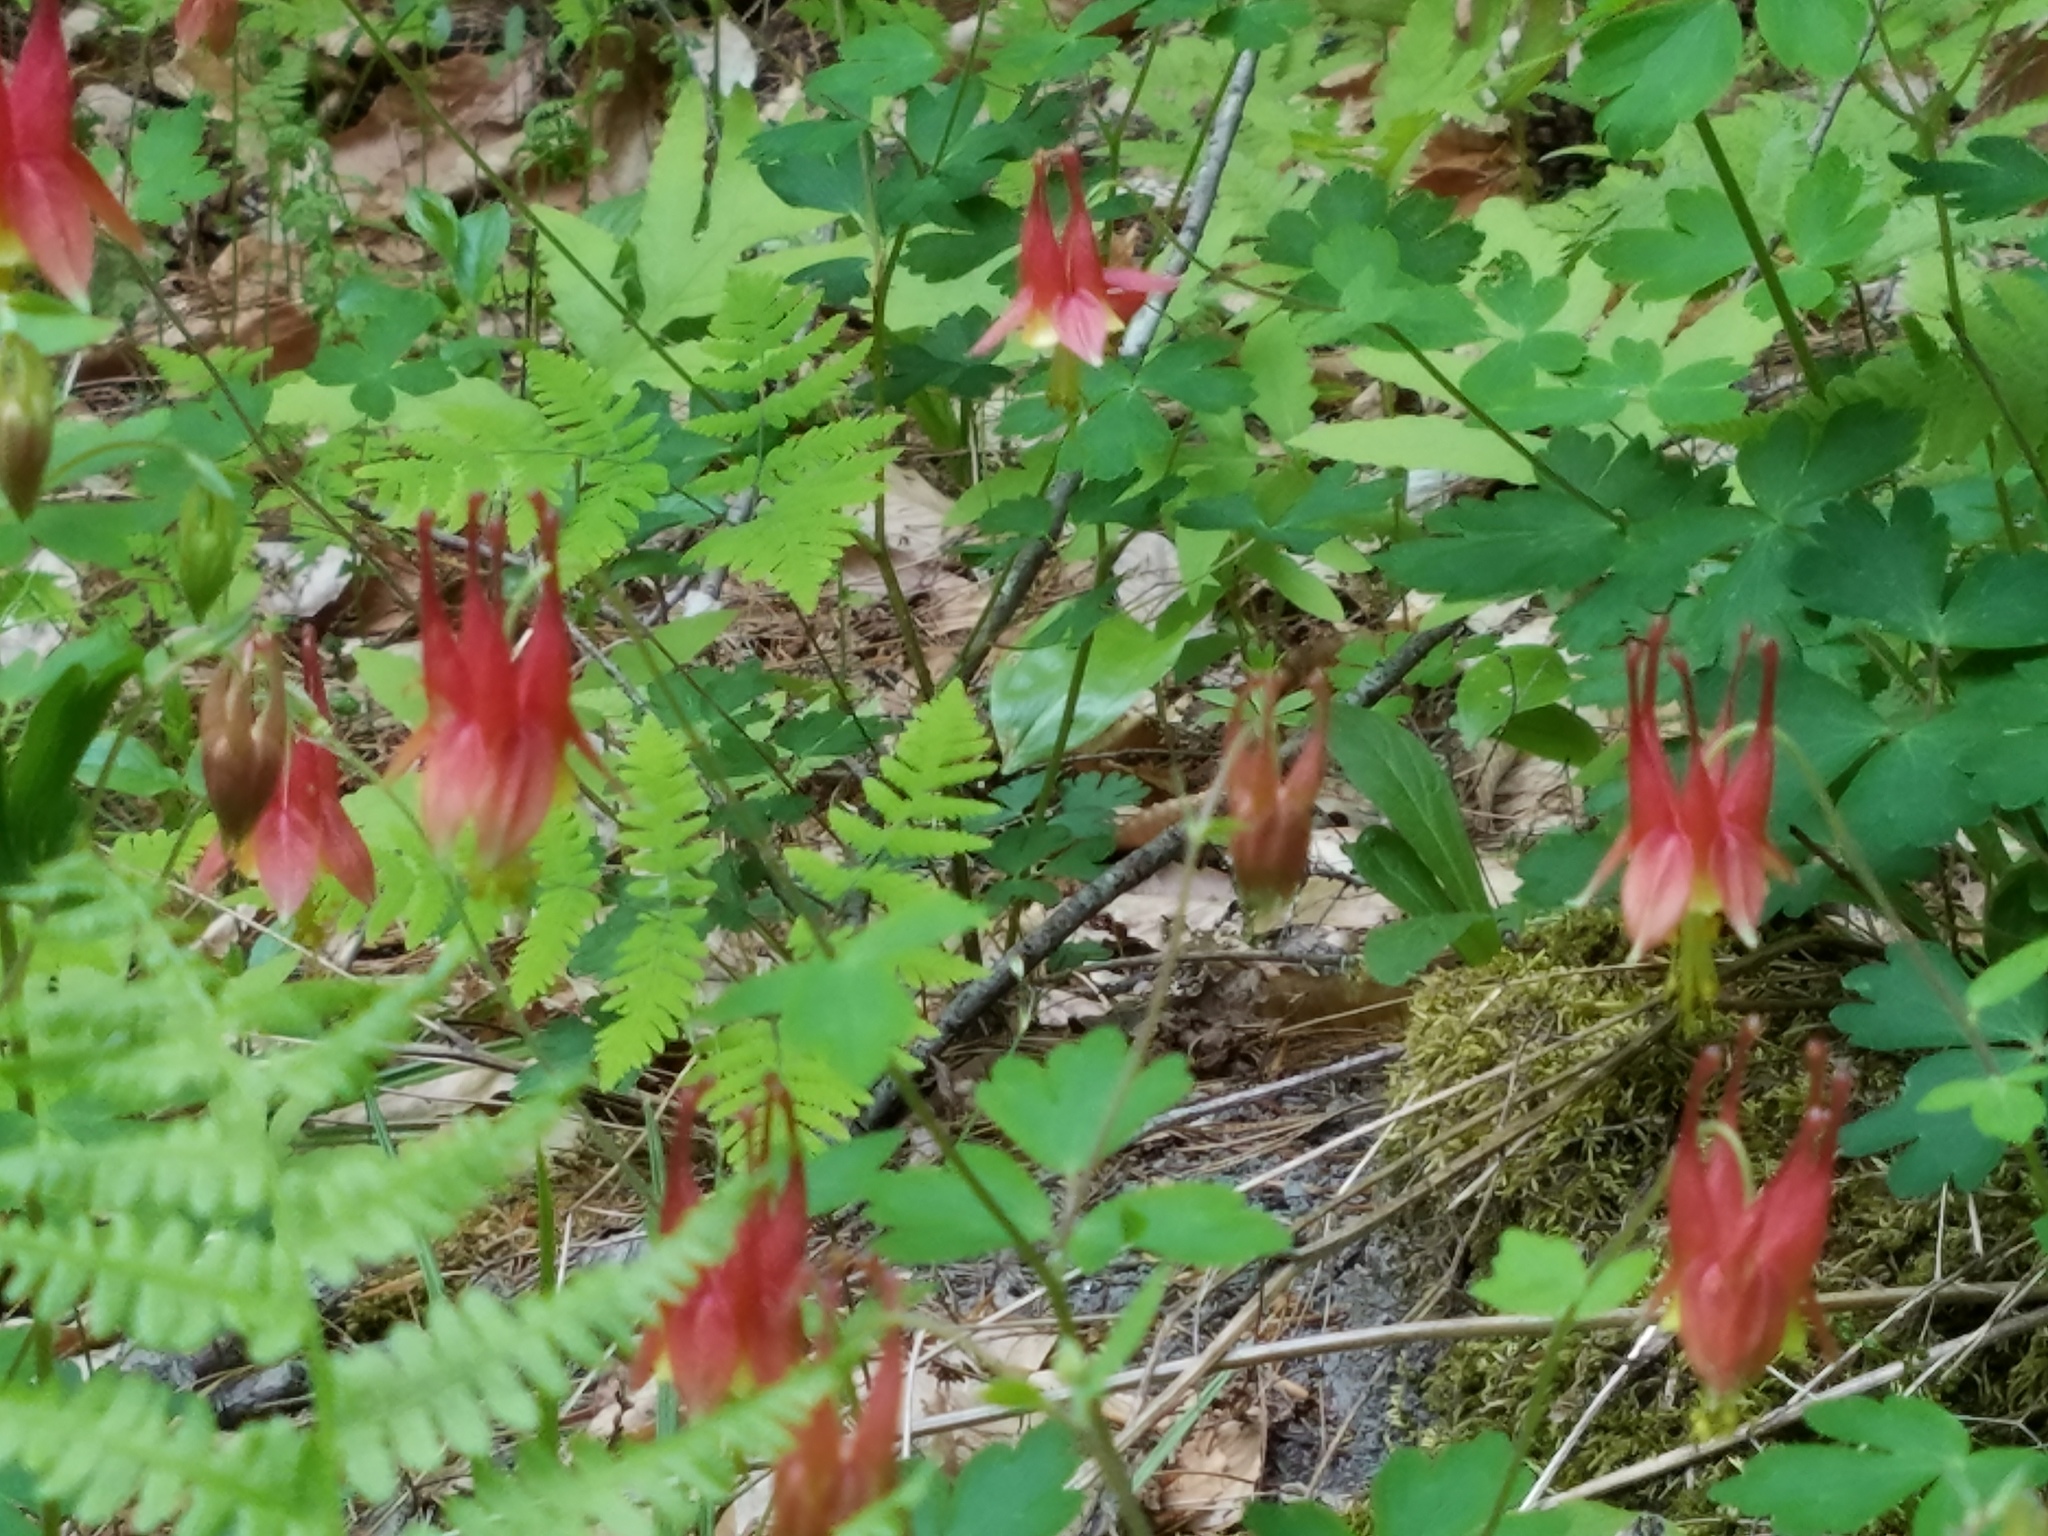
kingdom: Plantae
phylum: Tracheophyta
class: Magnoliopsida
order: Ranunculales
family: Ranunculaceae
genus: Aquilegia
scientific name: Aquilegia canadensis
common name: American columbine
